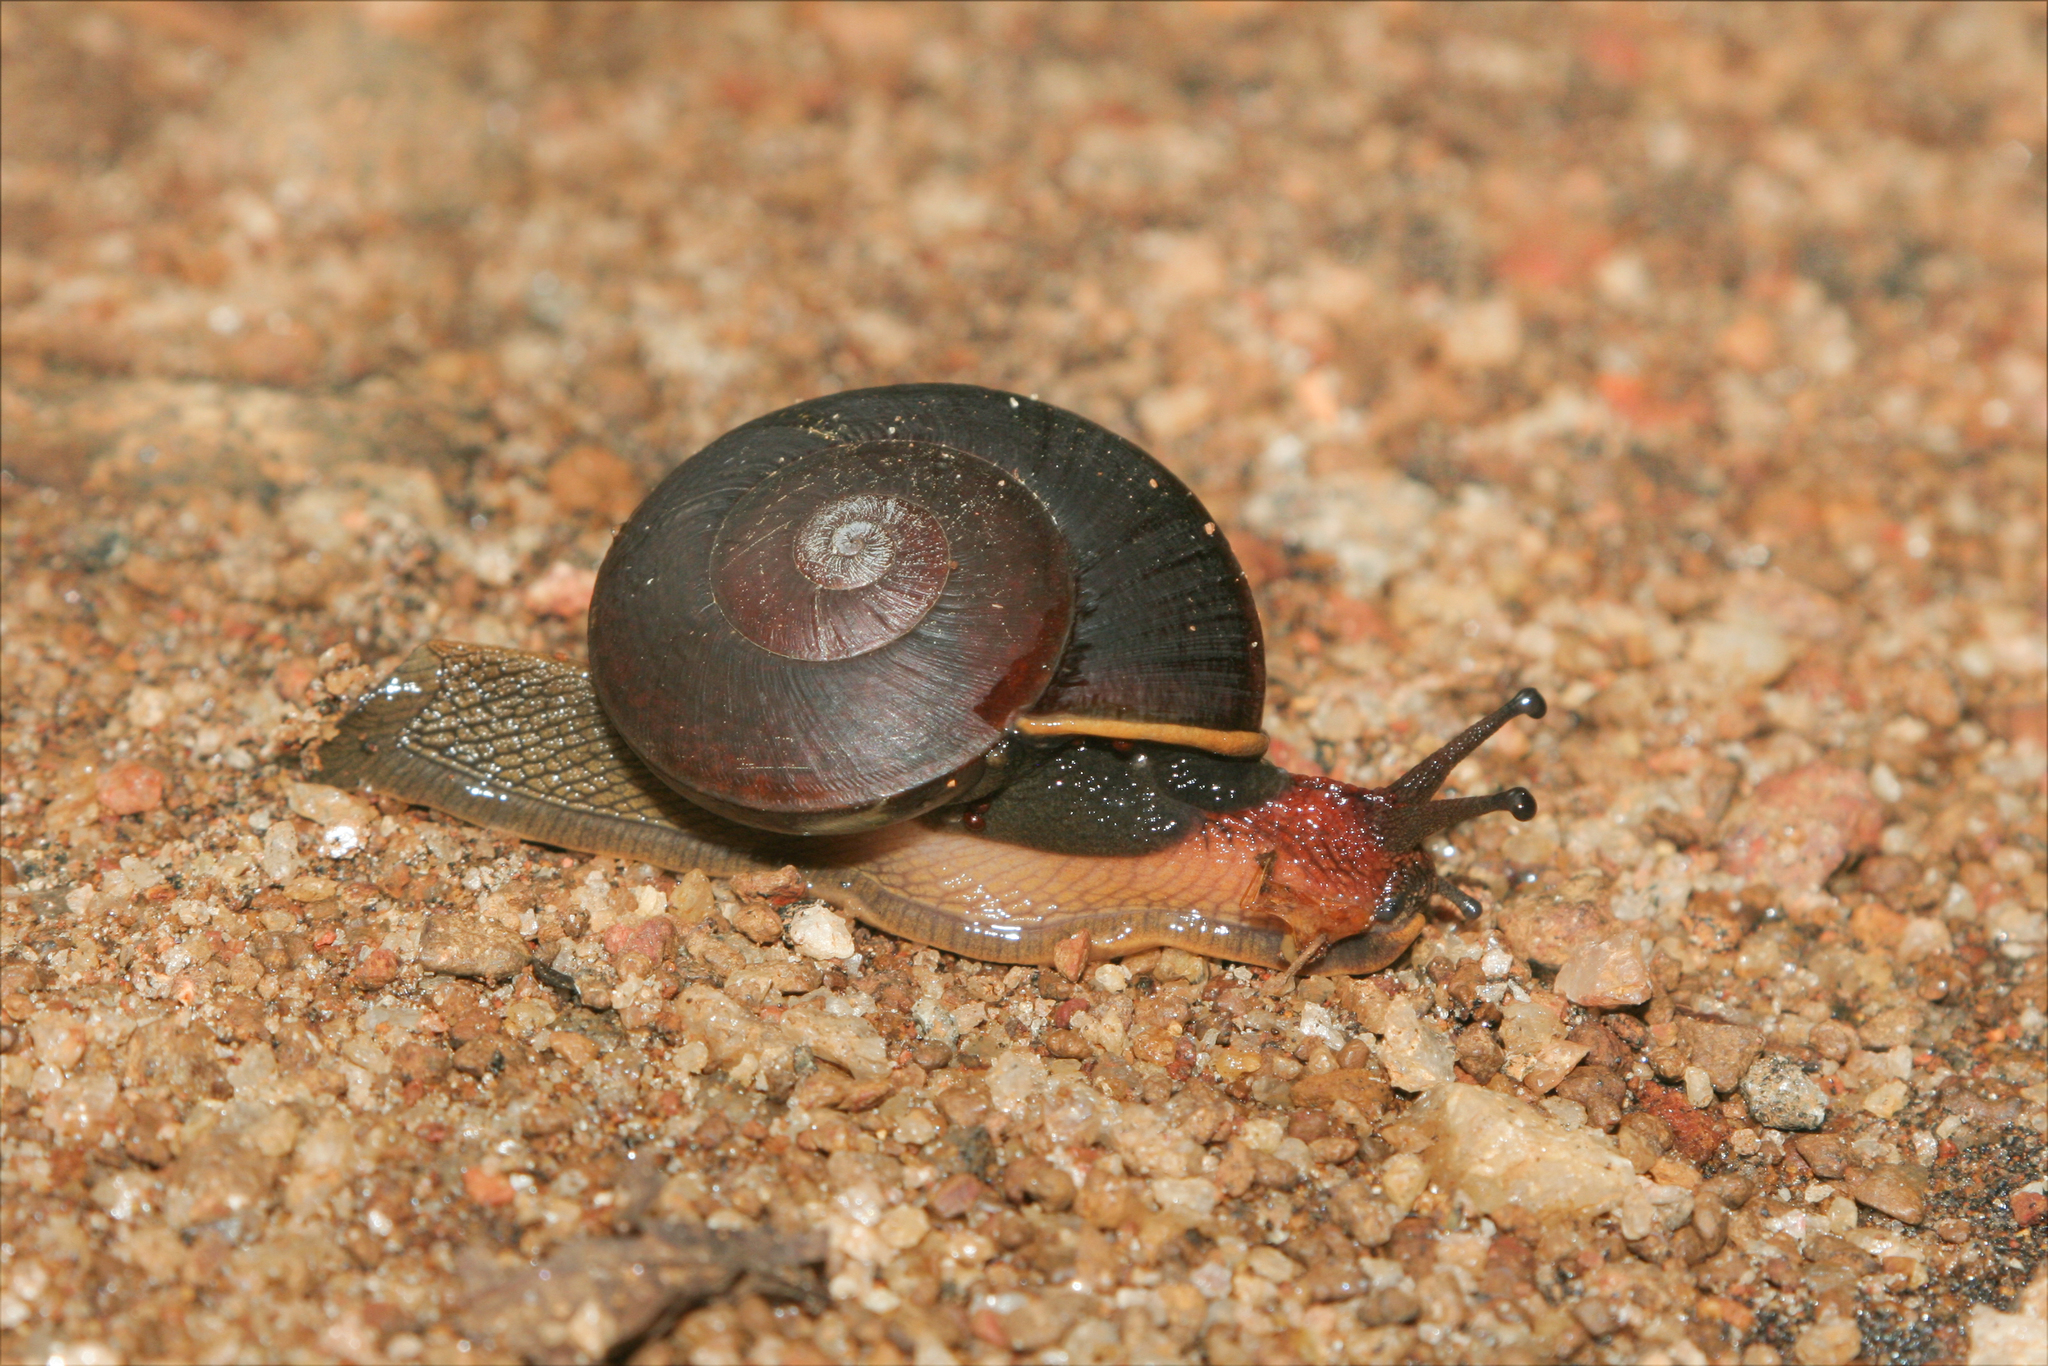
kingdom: Animalia
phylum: Mollusca
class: Gastropoda
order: Stylommatophora
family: Ariophantidae
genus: Cryptozona
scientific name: Cryptozona chenui
